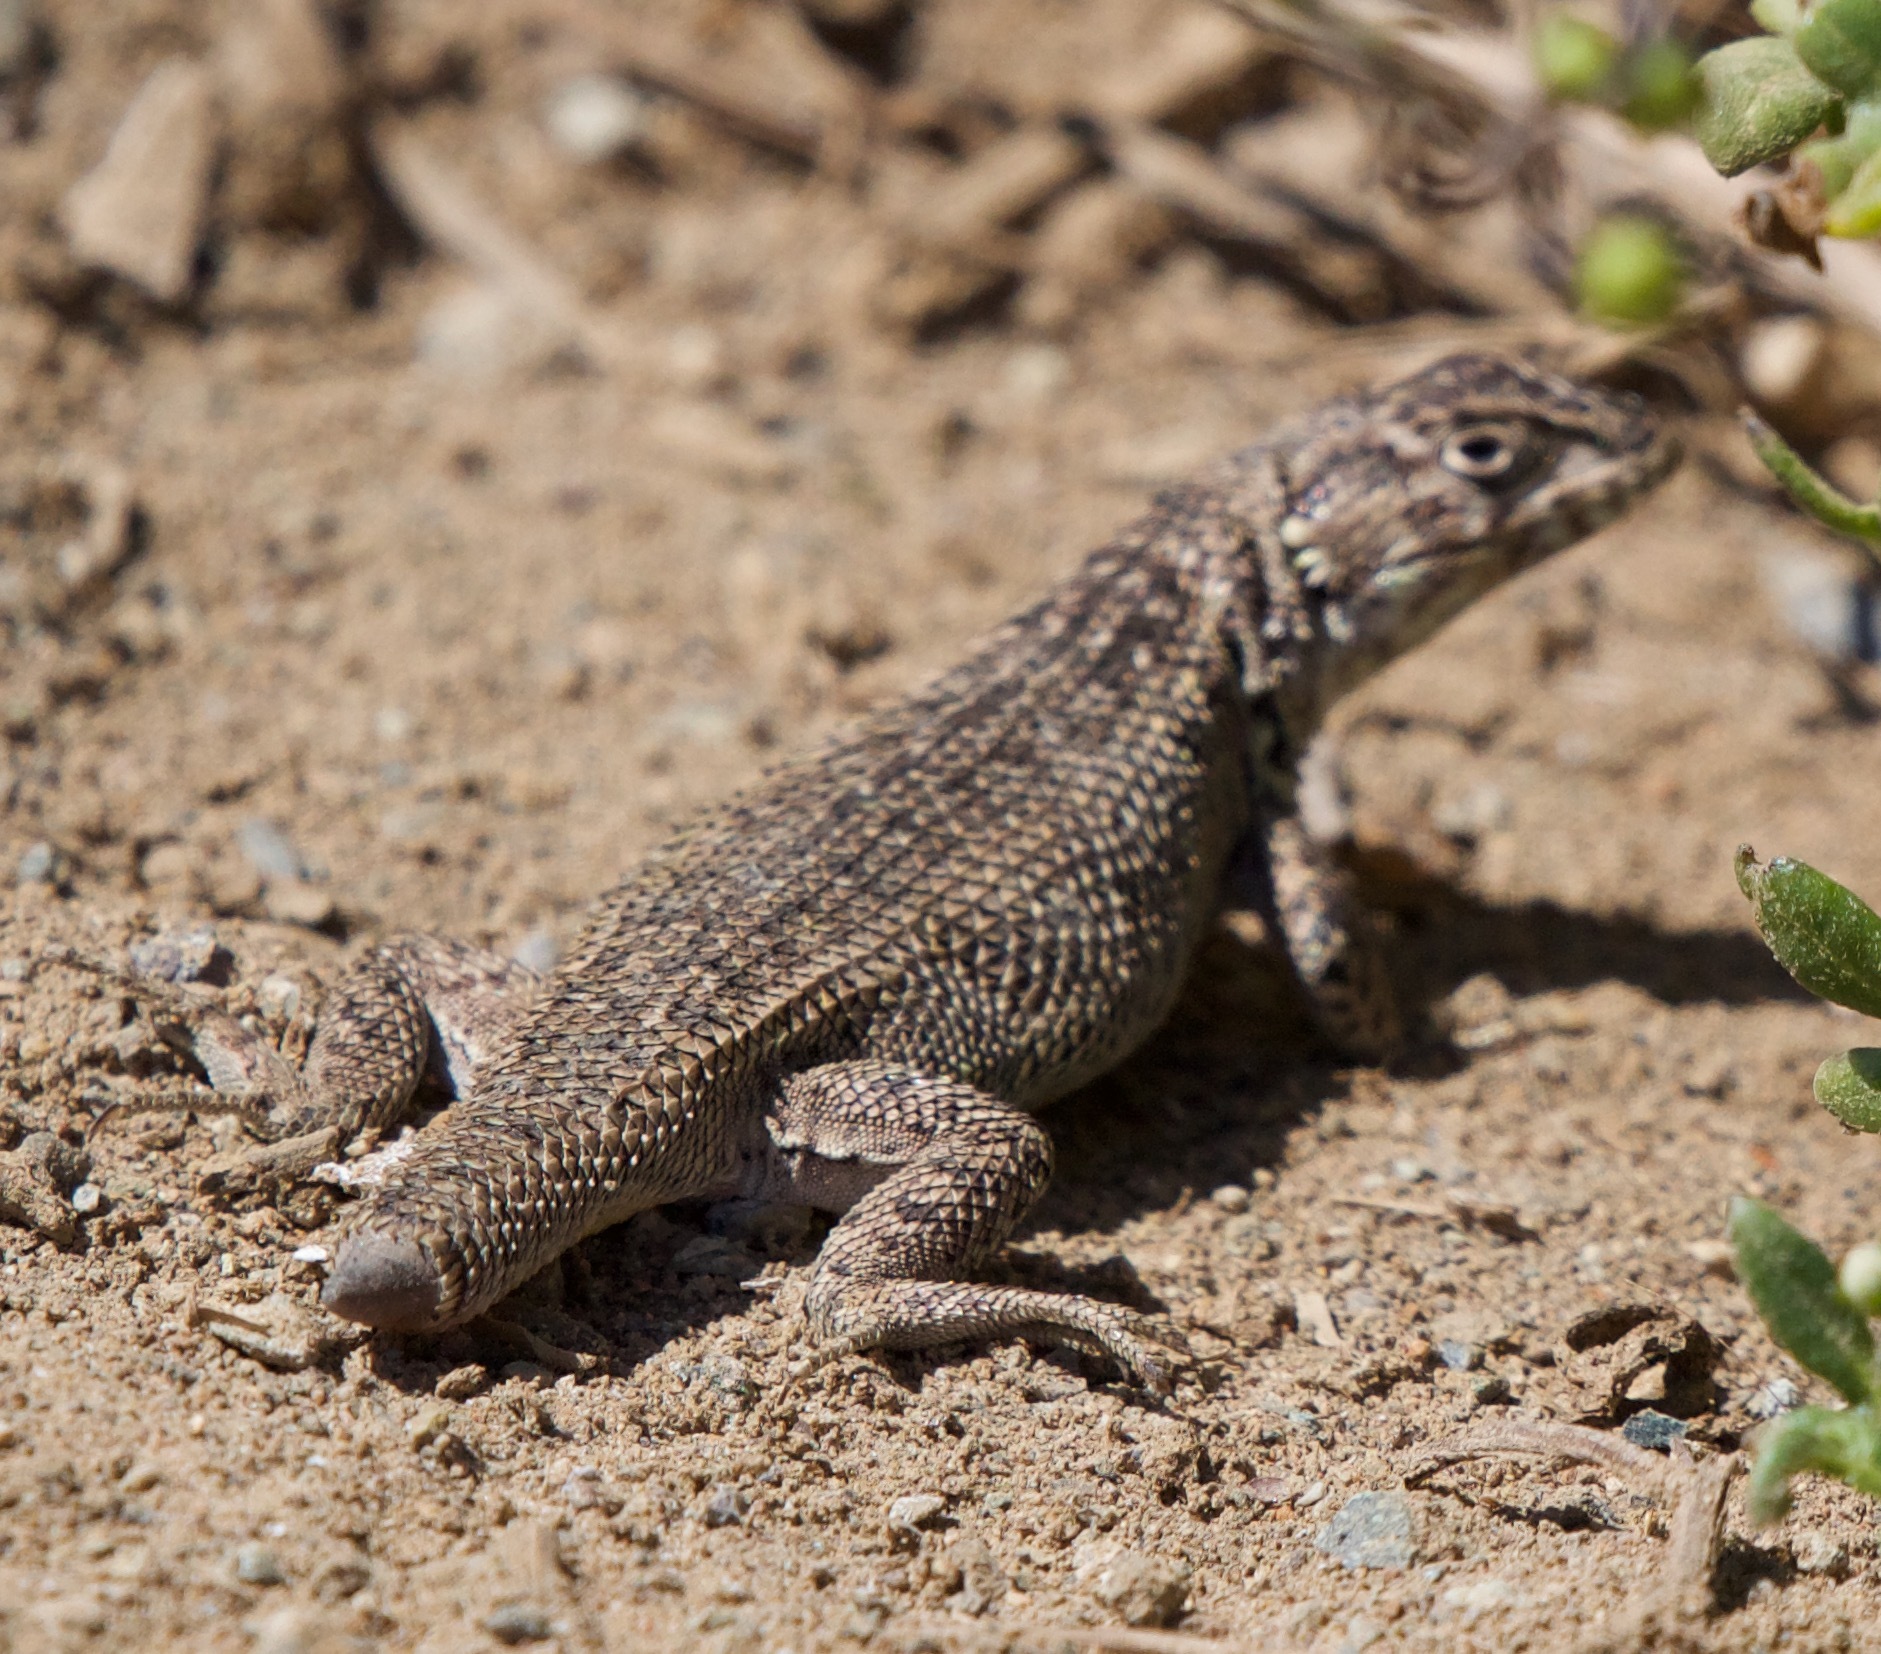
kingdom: Animalia
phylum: Chordata
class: Squamata
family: Liolaemidae
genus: Liolaemus
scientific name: Liolaemus zapallarensis
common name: Zapallaren tree iguana
